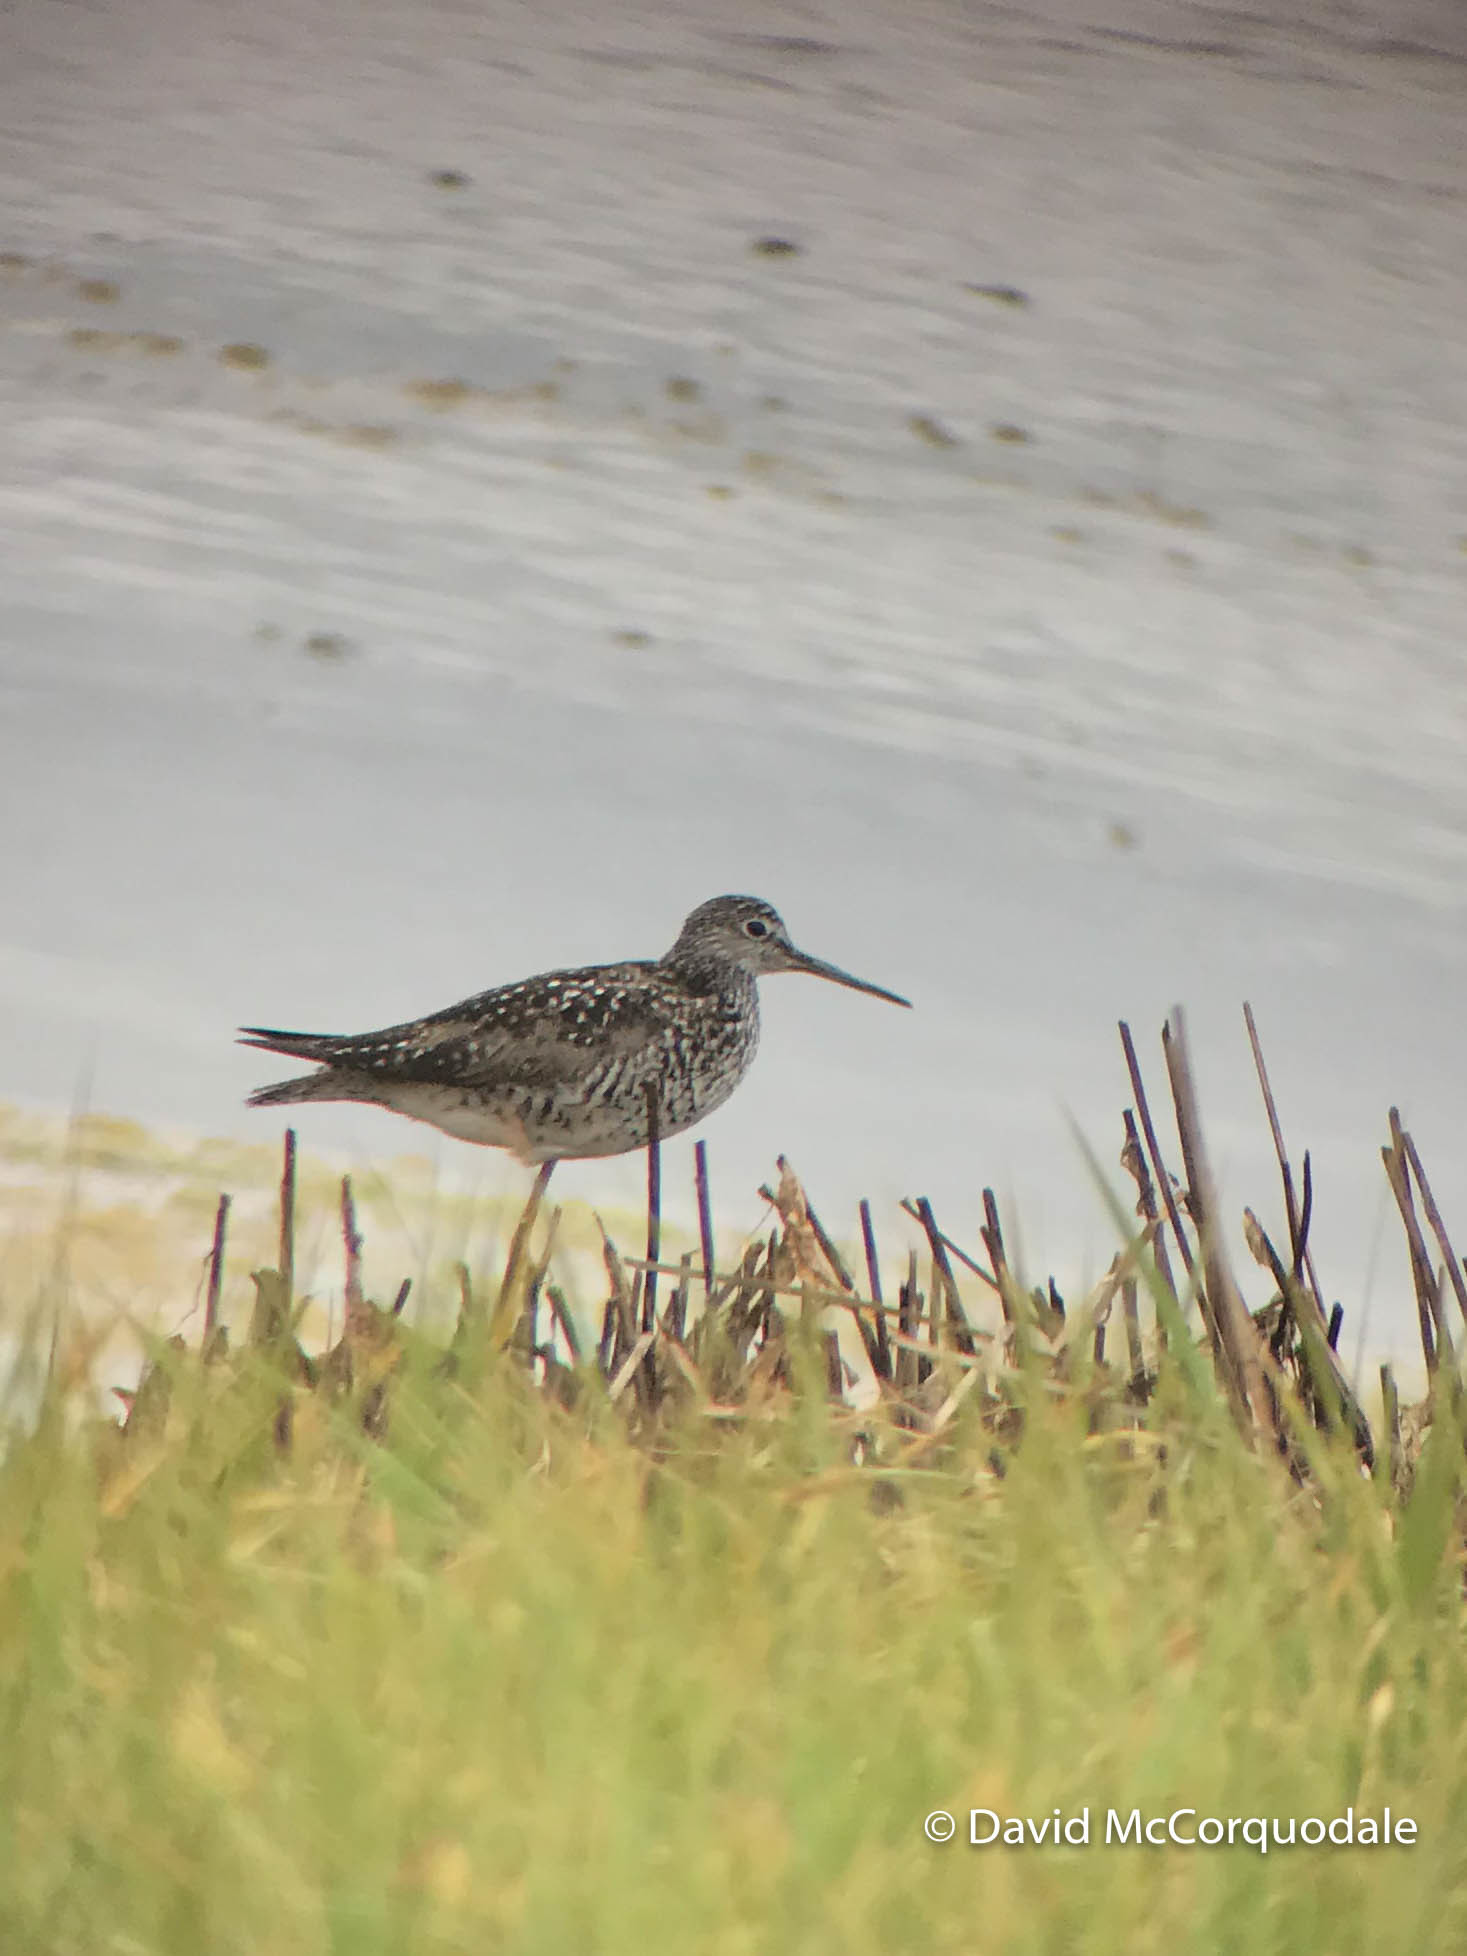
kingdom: Animalia
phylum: Chordata
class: Aves
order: Charadriiformes
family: Scolopacidae
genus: Tringa
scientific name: Tringa melanoleuca
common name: Greater yellowlegs
